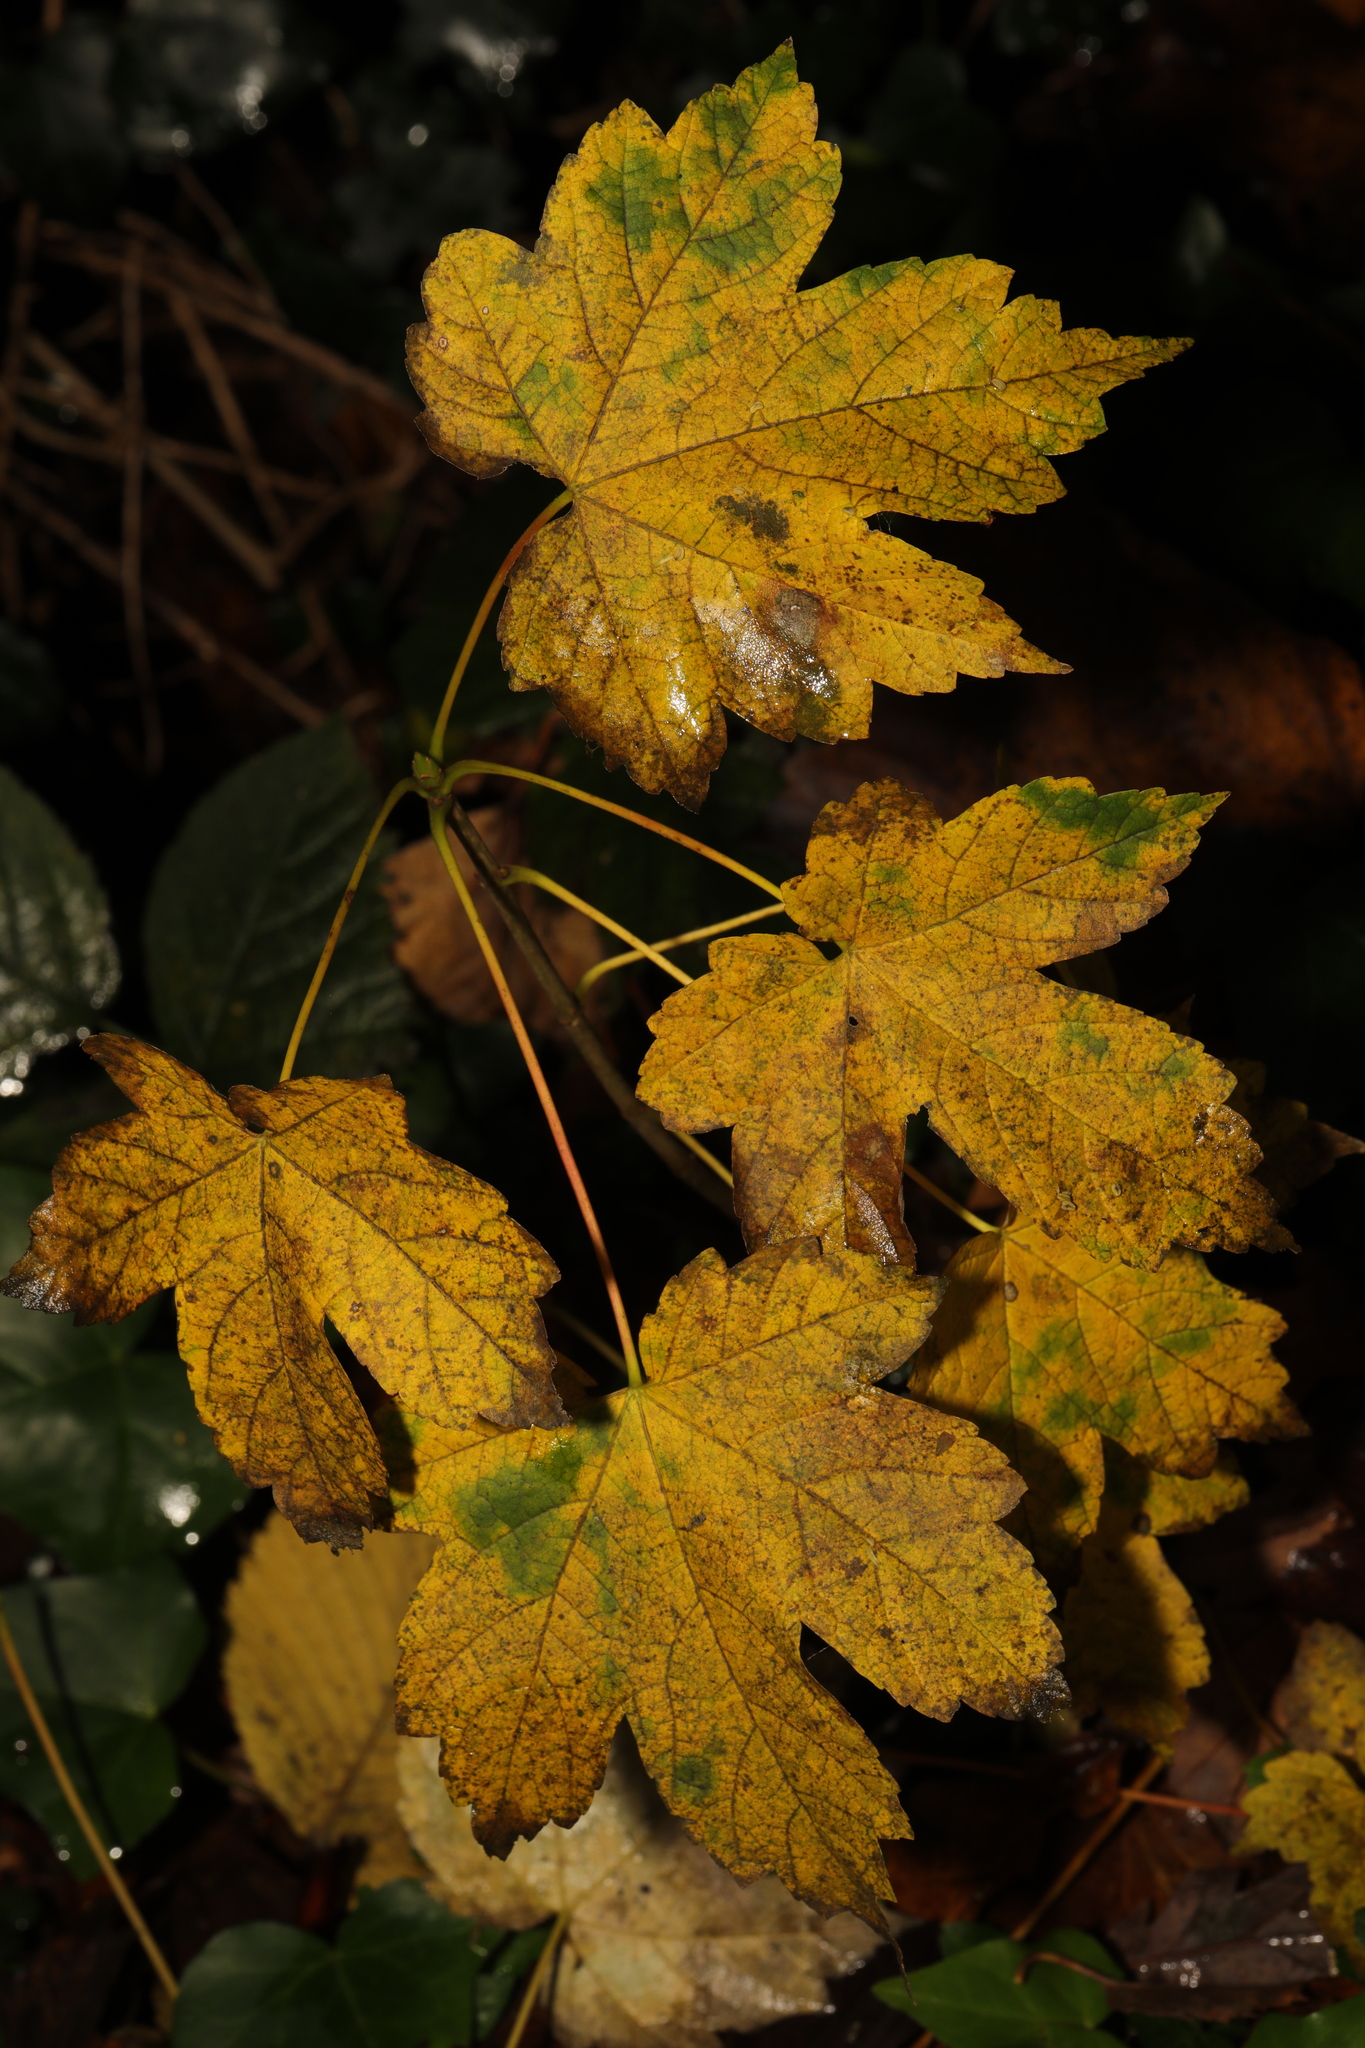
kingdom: Plantae
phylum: Tracheophyta
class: Magnoliopsida
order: Sapindales
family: Sapindaceae
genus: Acer
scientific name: Acer pseudoplatanus
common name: Sycamore
